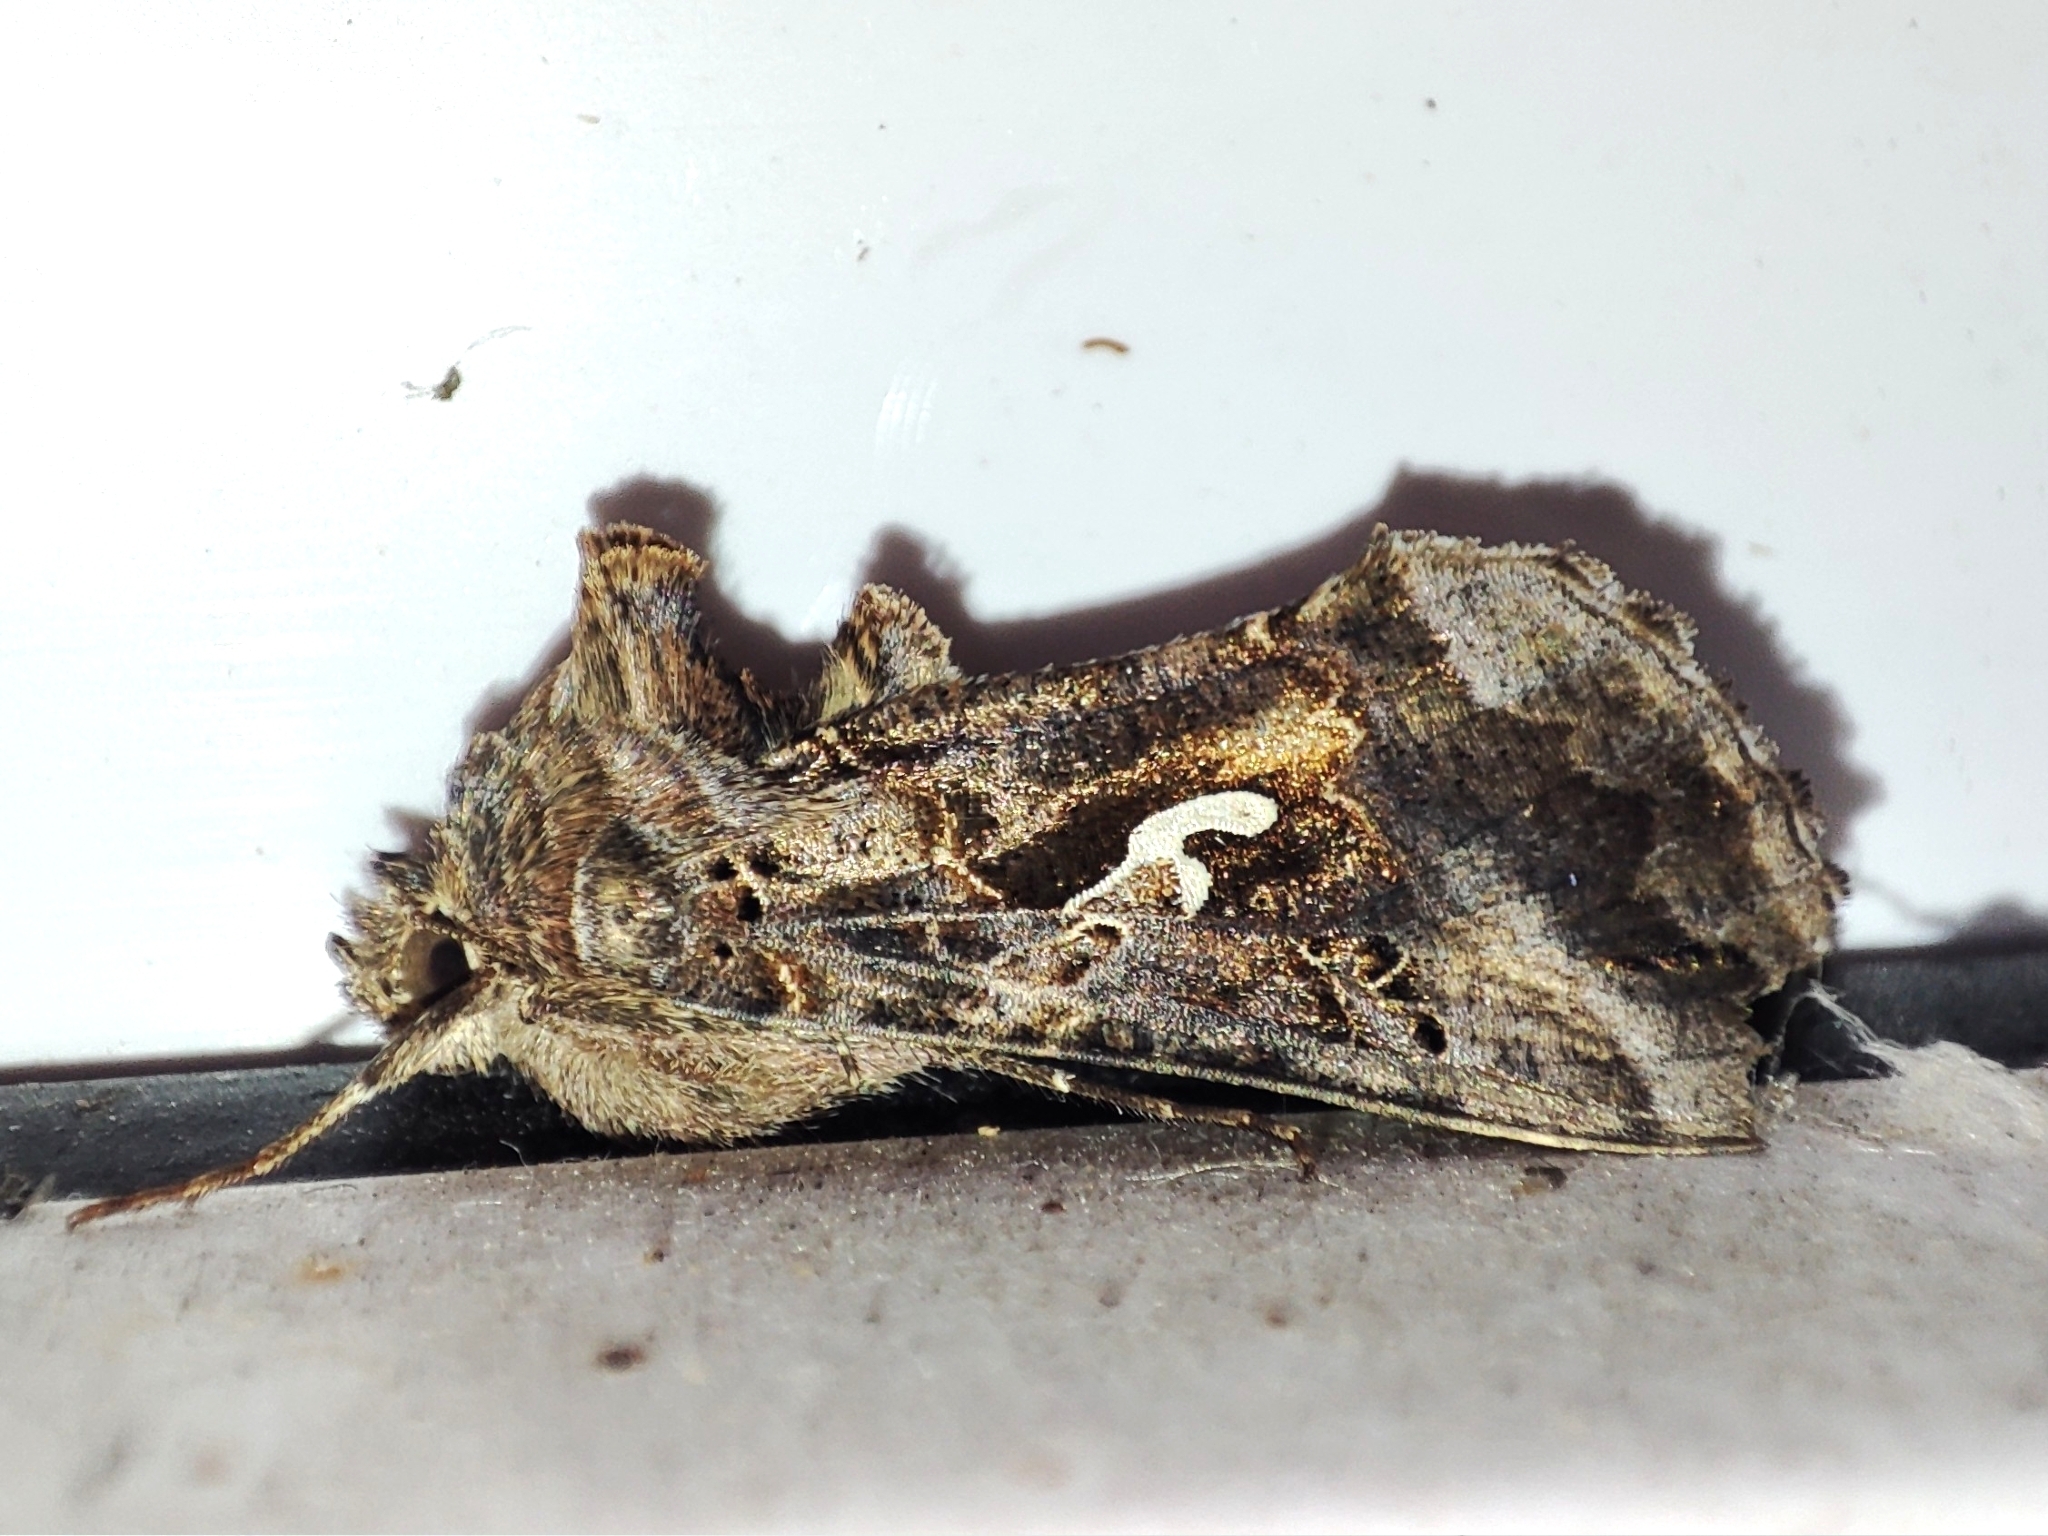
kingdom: Animalia
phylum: Arthropoda
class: Insecta
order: Lepidoptera
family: Noctuidae
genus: Autographa
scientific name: Autographa gamma
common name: Silver y
